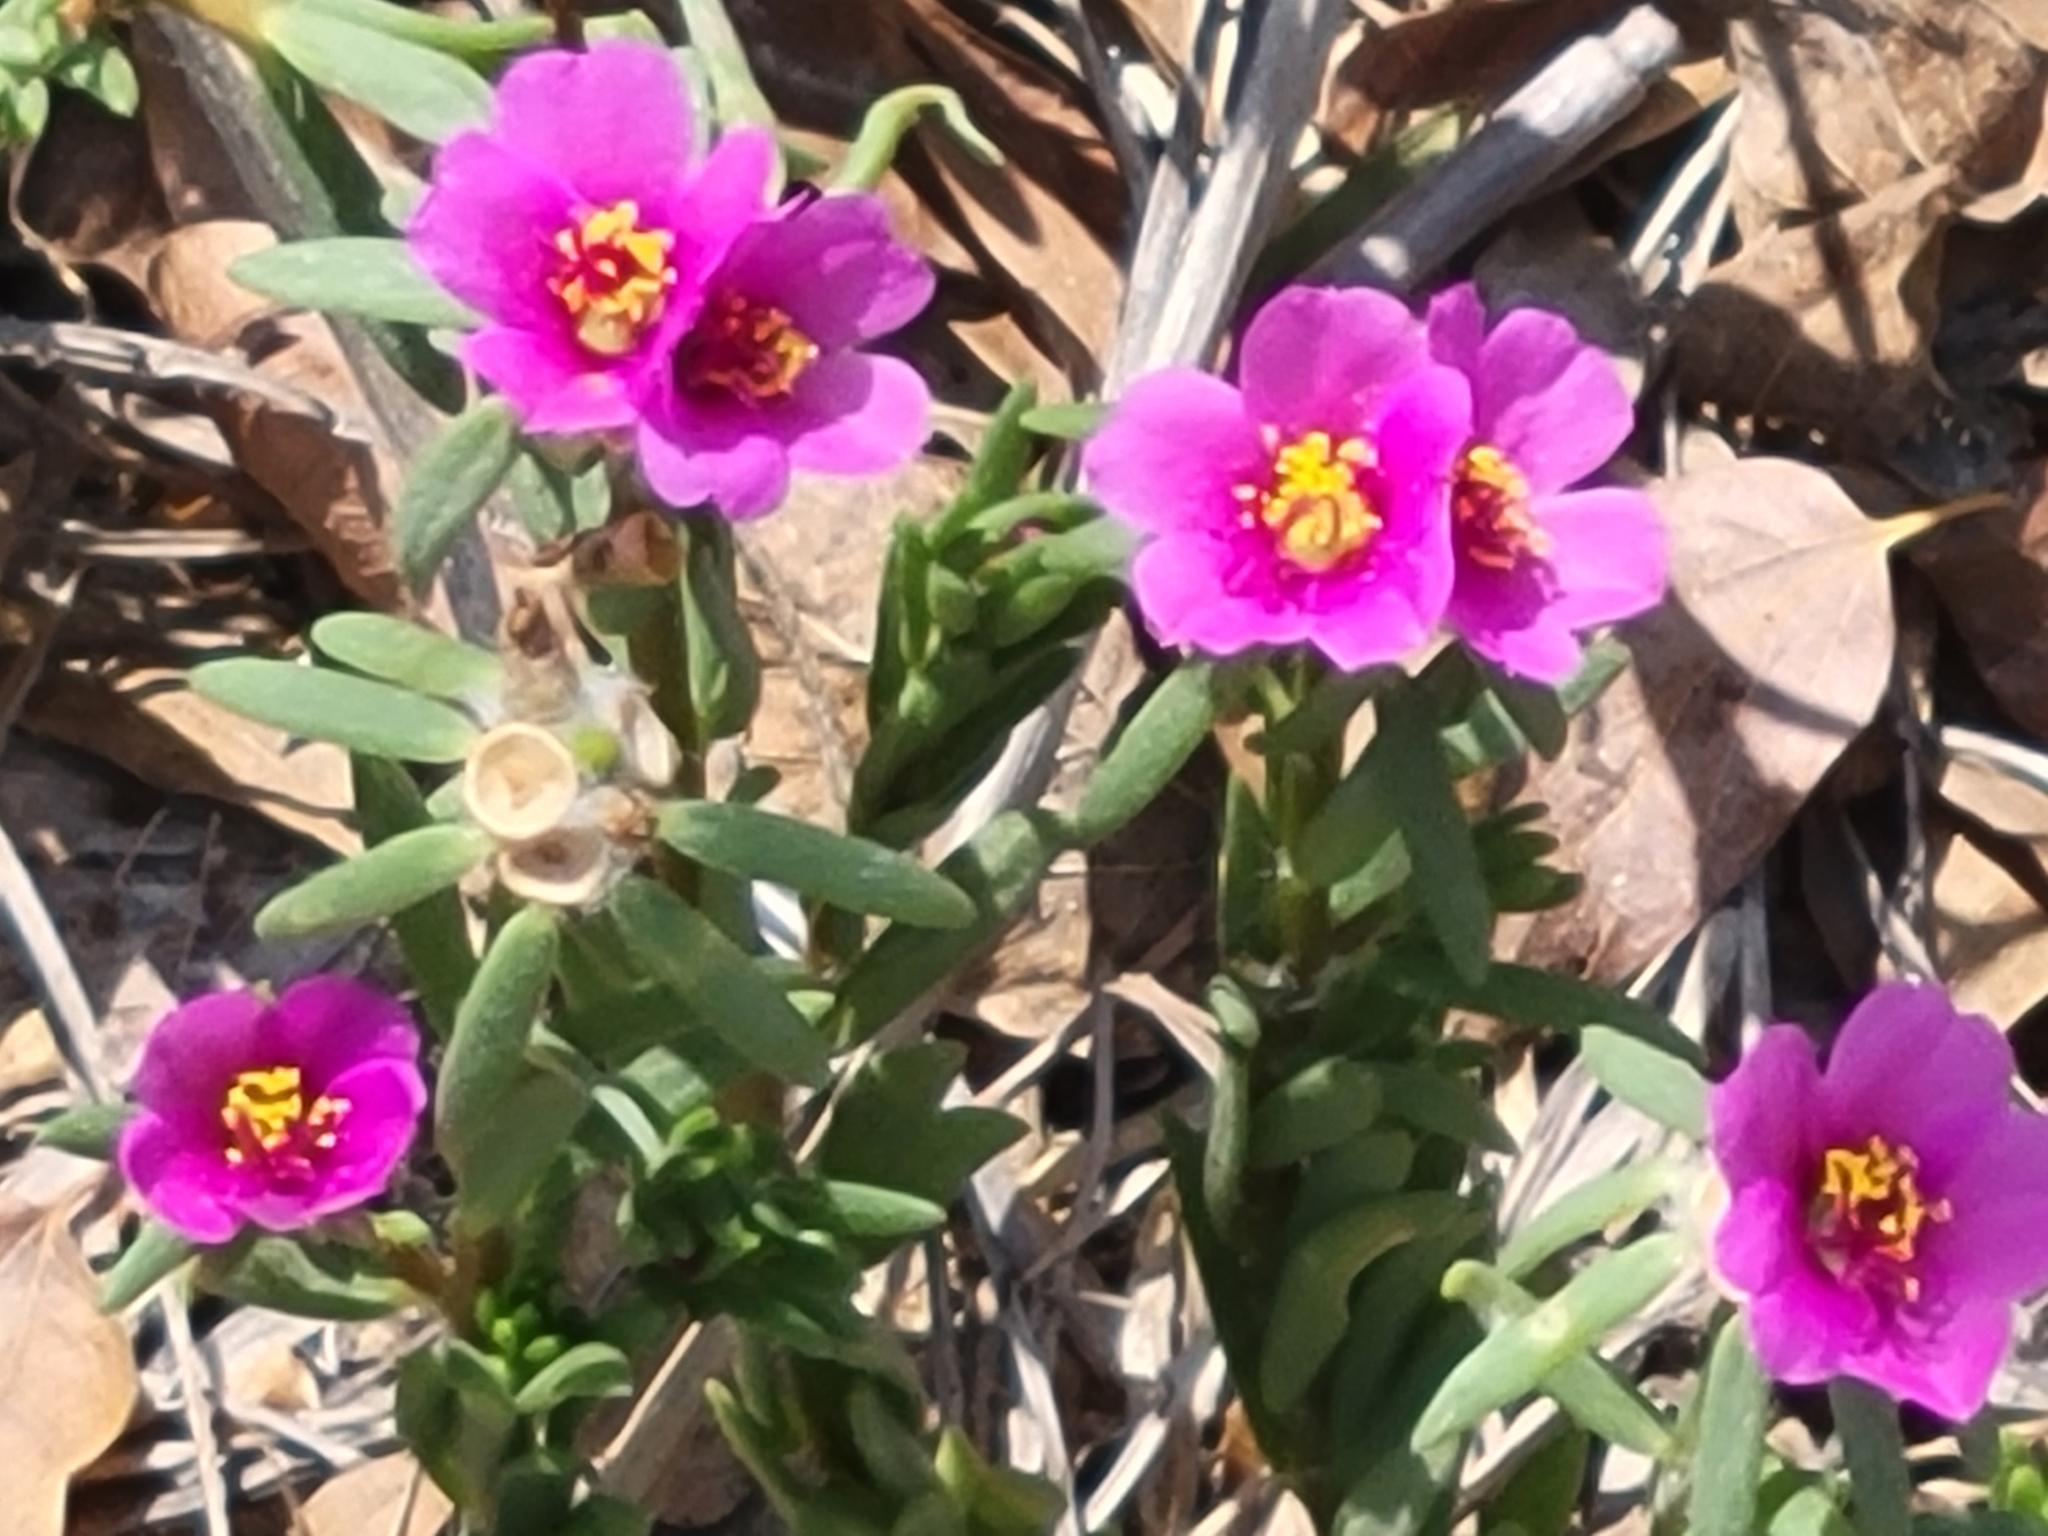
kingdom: Plantae
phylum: Tracheophyta
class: Magnoliopsida
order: Caryophyllales
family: Portulacaceae
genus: Portulaca
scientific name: Portulaca pilosa
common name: Kiss me quick
